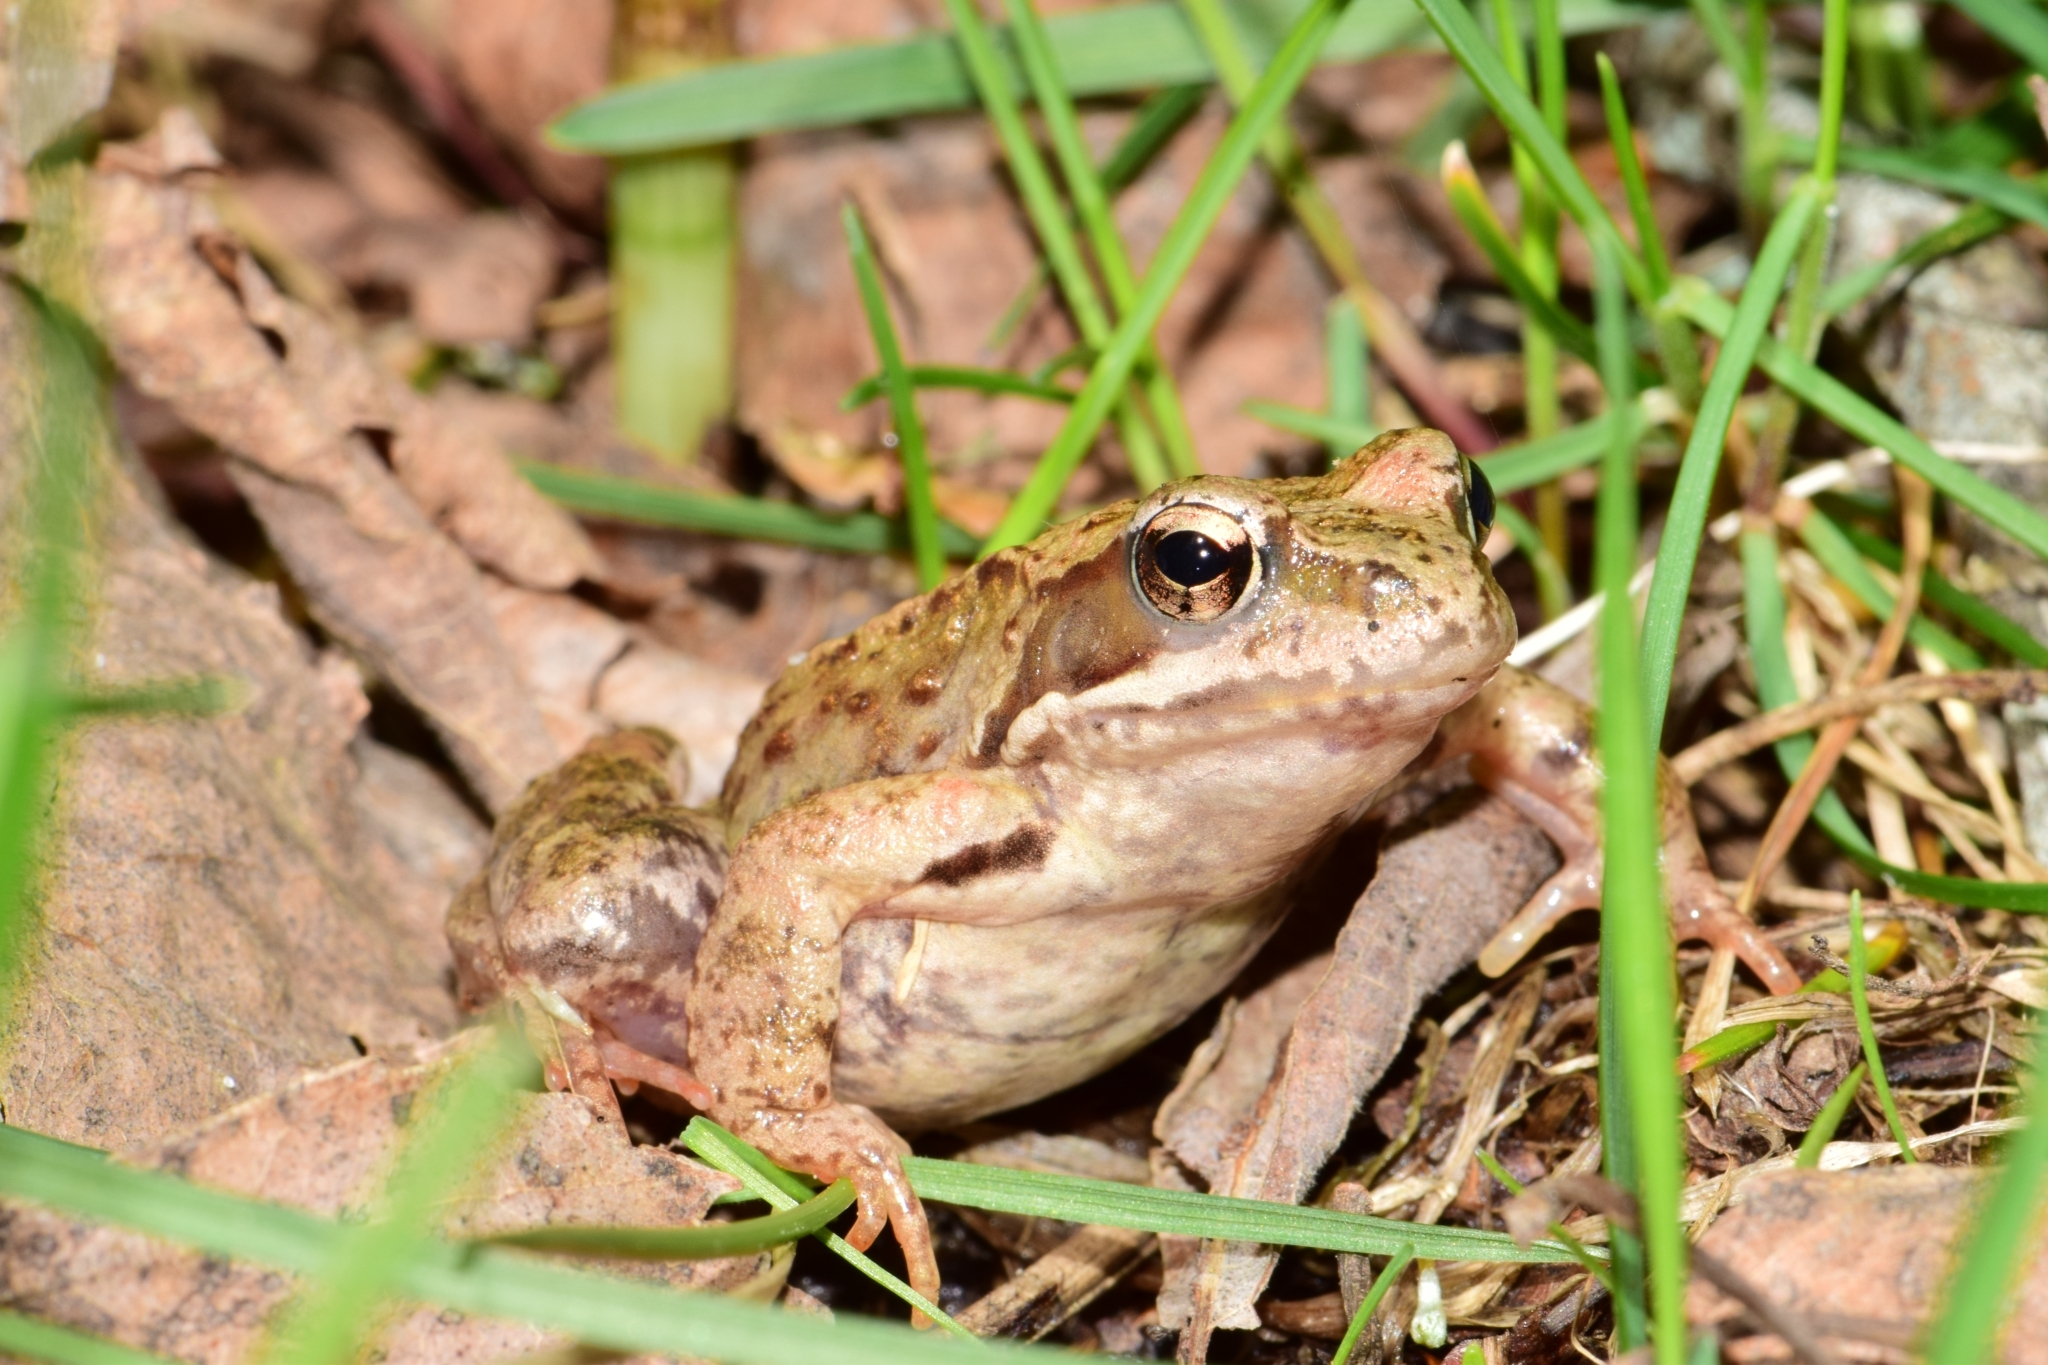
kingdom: Animalia
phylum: Chordata
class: Amphibia
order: Anura
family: Ranidae
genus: Rana
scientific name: Rana temporaria
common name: Common frog
